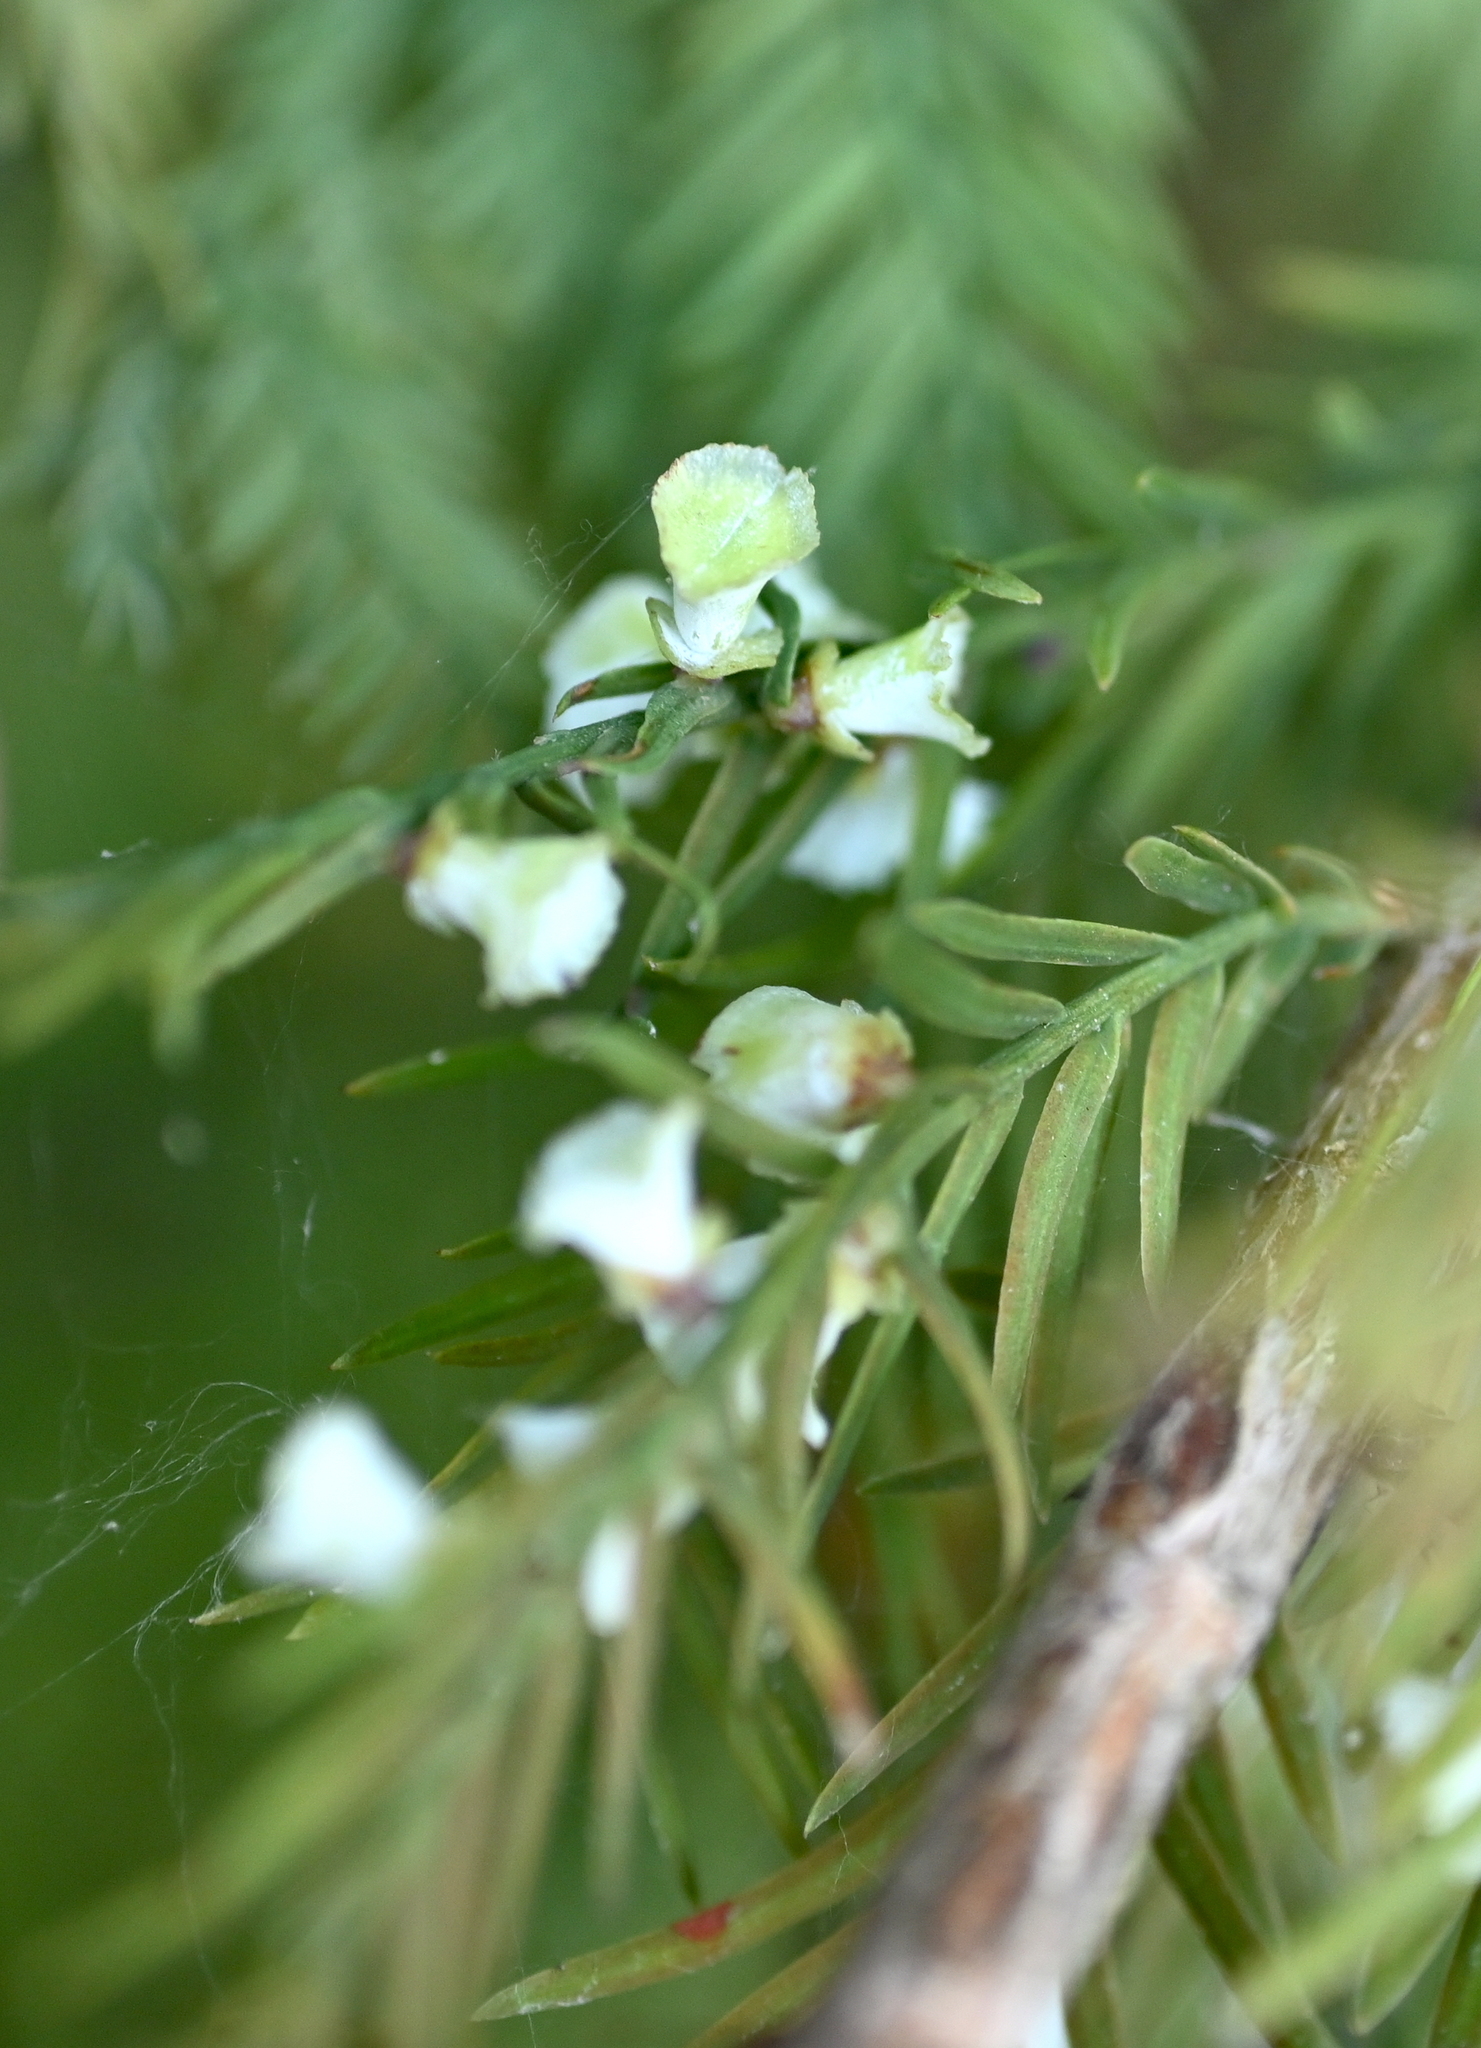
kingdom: Animalia
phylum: Arthropoda
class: Insecta
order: Diptera
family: Cecidomyiidae
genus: Taxodiomyia
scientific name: Taxodiomyia cupressi
